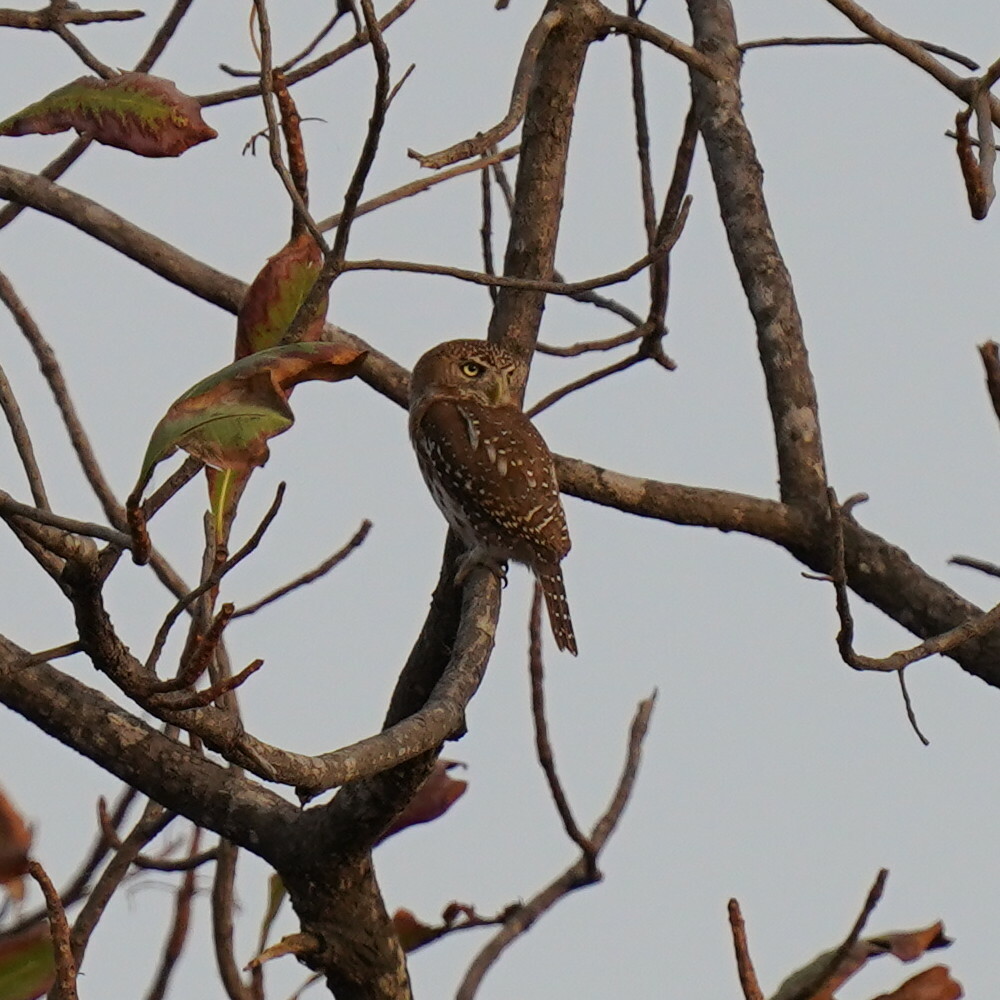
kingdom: Animalia
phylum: Chordata
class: Aves
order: Strigiformes
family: Strigidae
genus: Glaucidium
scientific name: Glaucidium perlatum
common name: Pearl-spotted owlet
